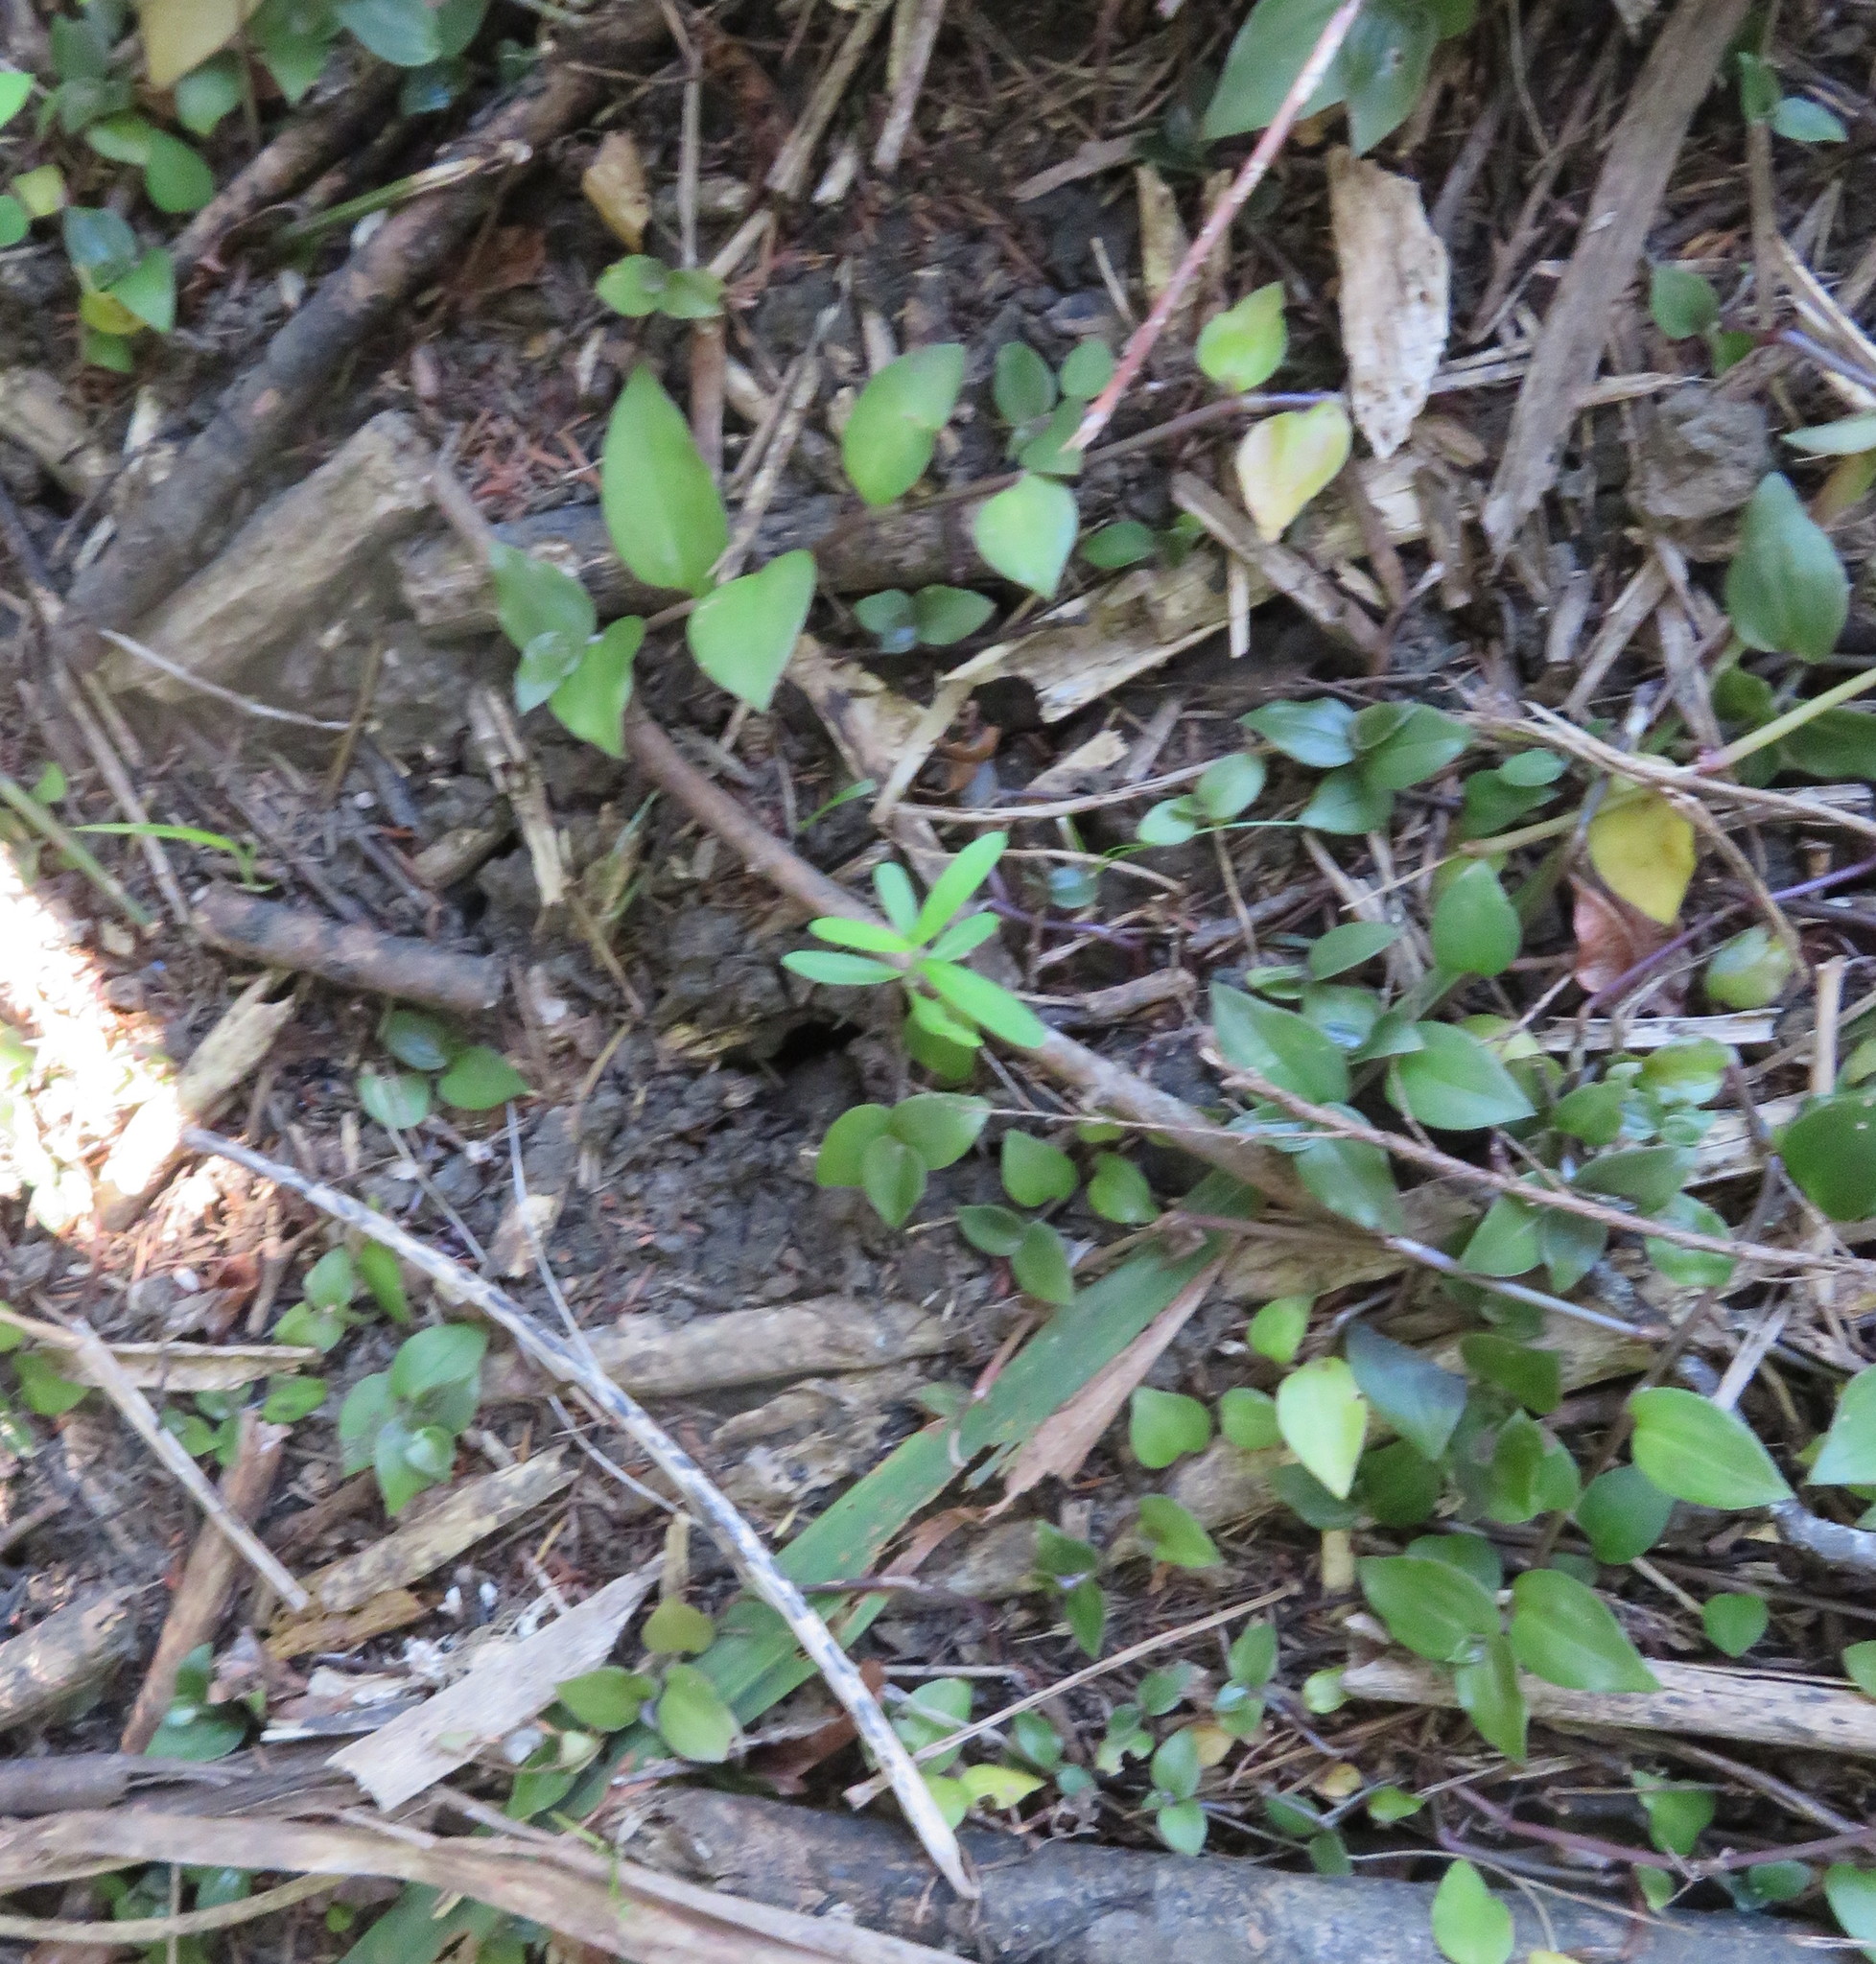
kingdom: Plantae
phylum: Tracheophyta
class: Magnoliopsida
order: Gentianales
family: Apocynaceae
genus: Araujia
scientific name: Araujia sericifera
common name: White bladderflower
